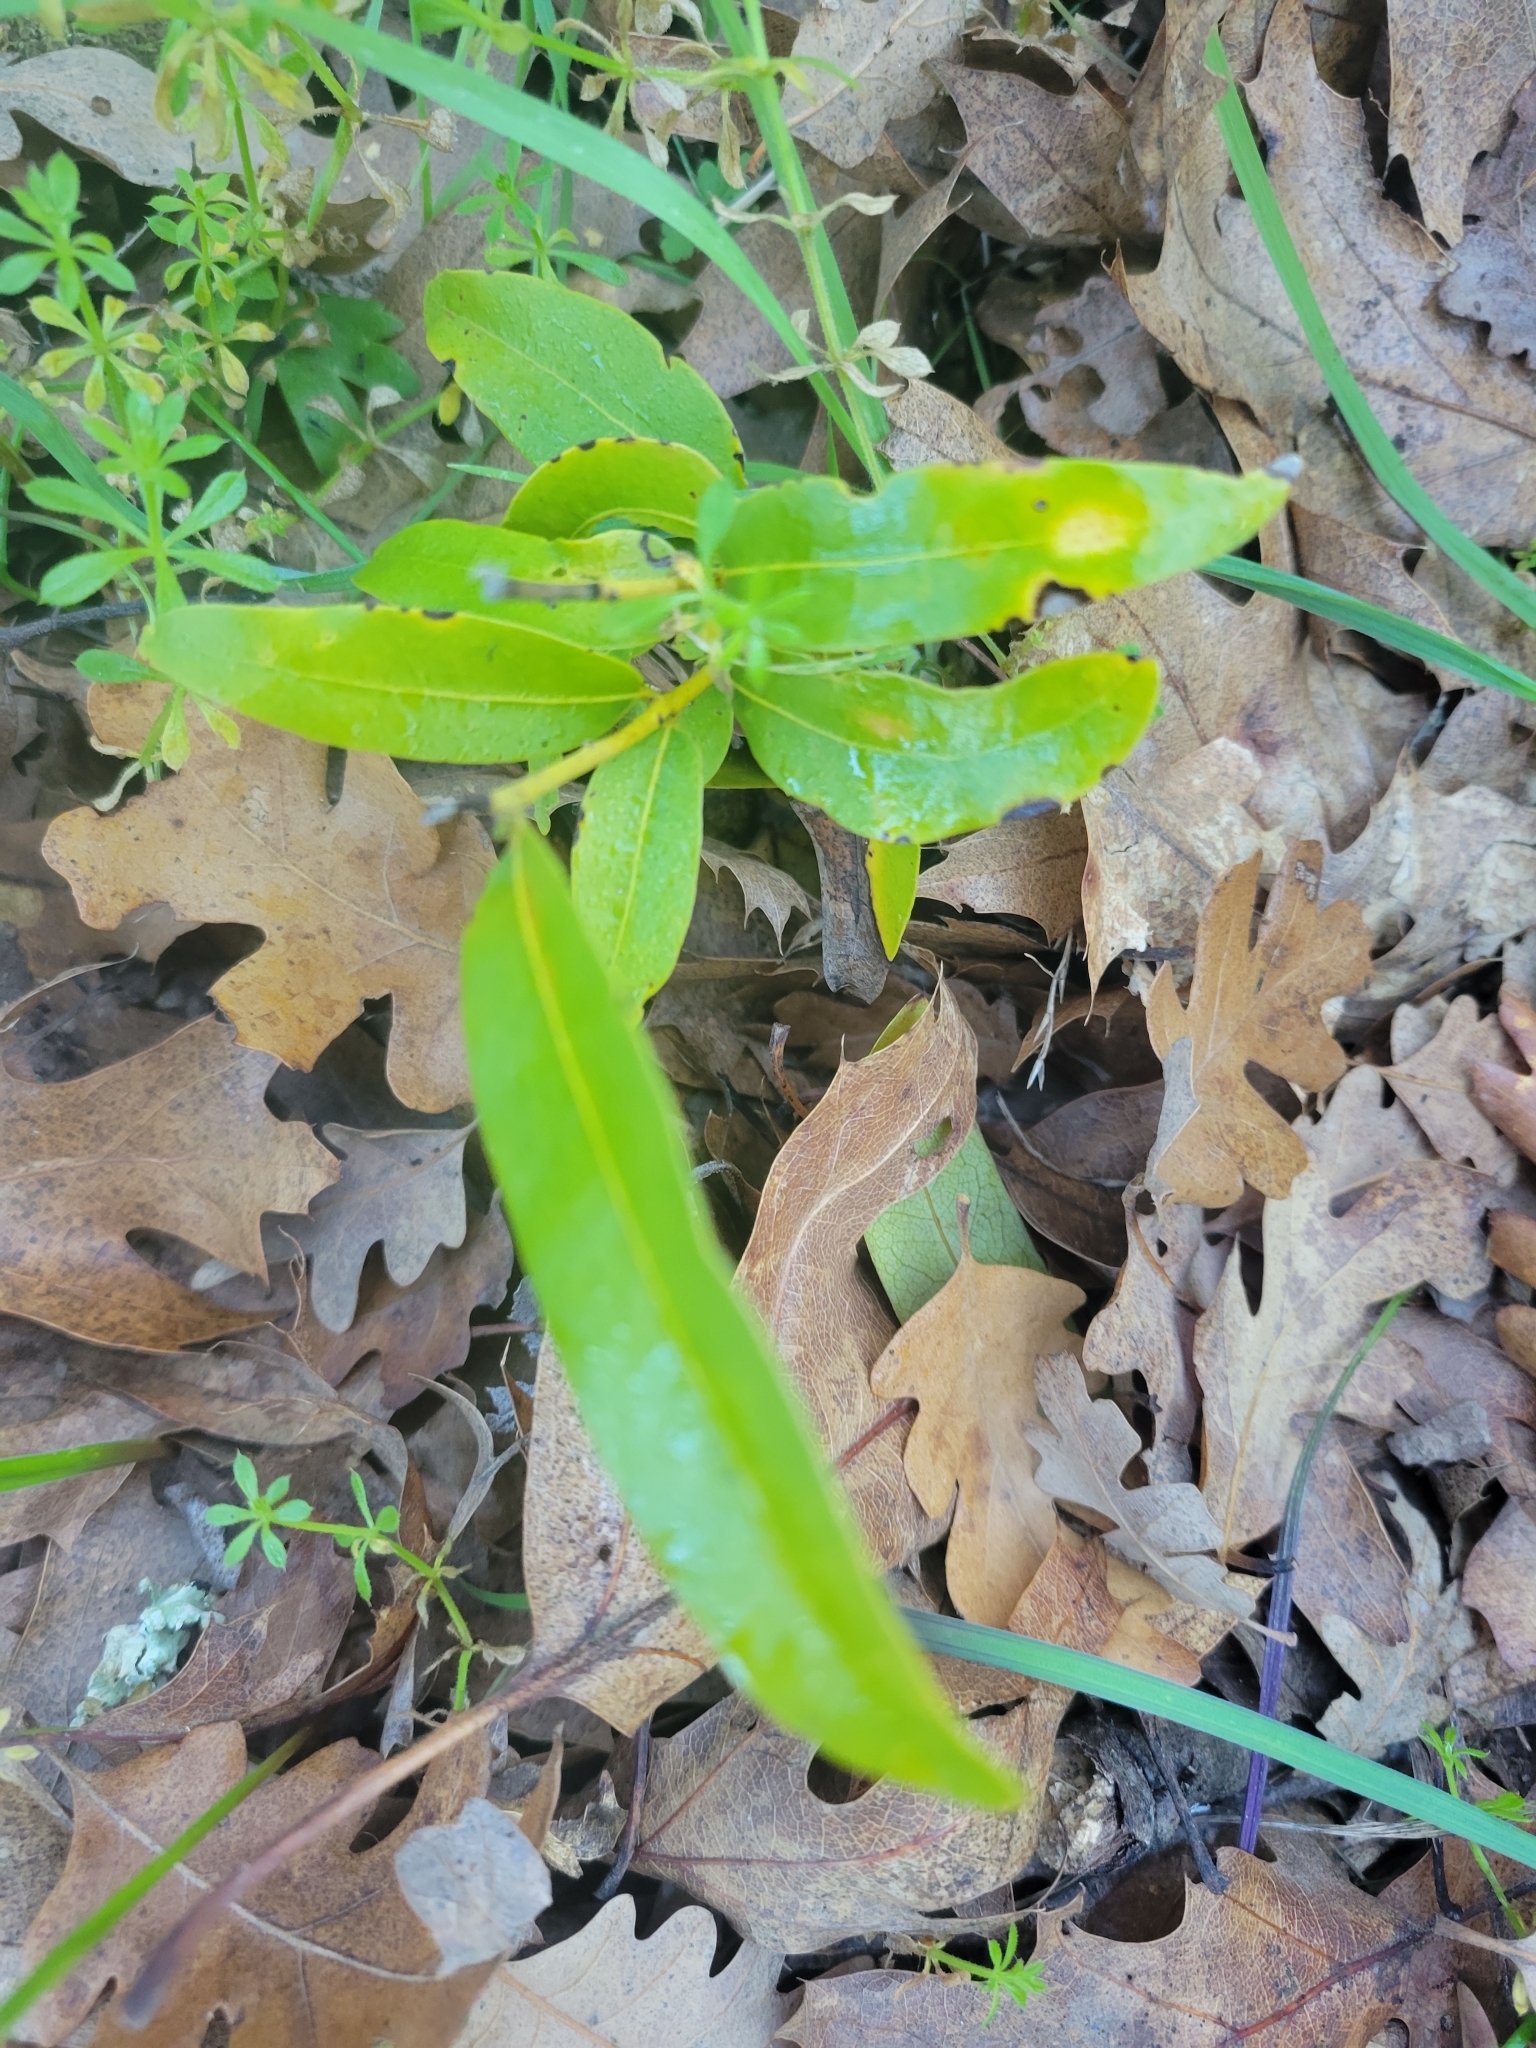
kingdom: Plantae
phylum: Tracheophyta
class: Magnoliopsida
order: Laurales
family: Lauraceae
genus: Umbellularia
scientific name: Umbellularia californica
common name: California bay
